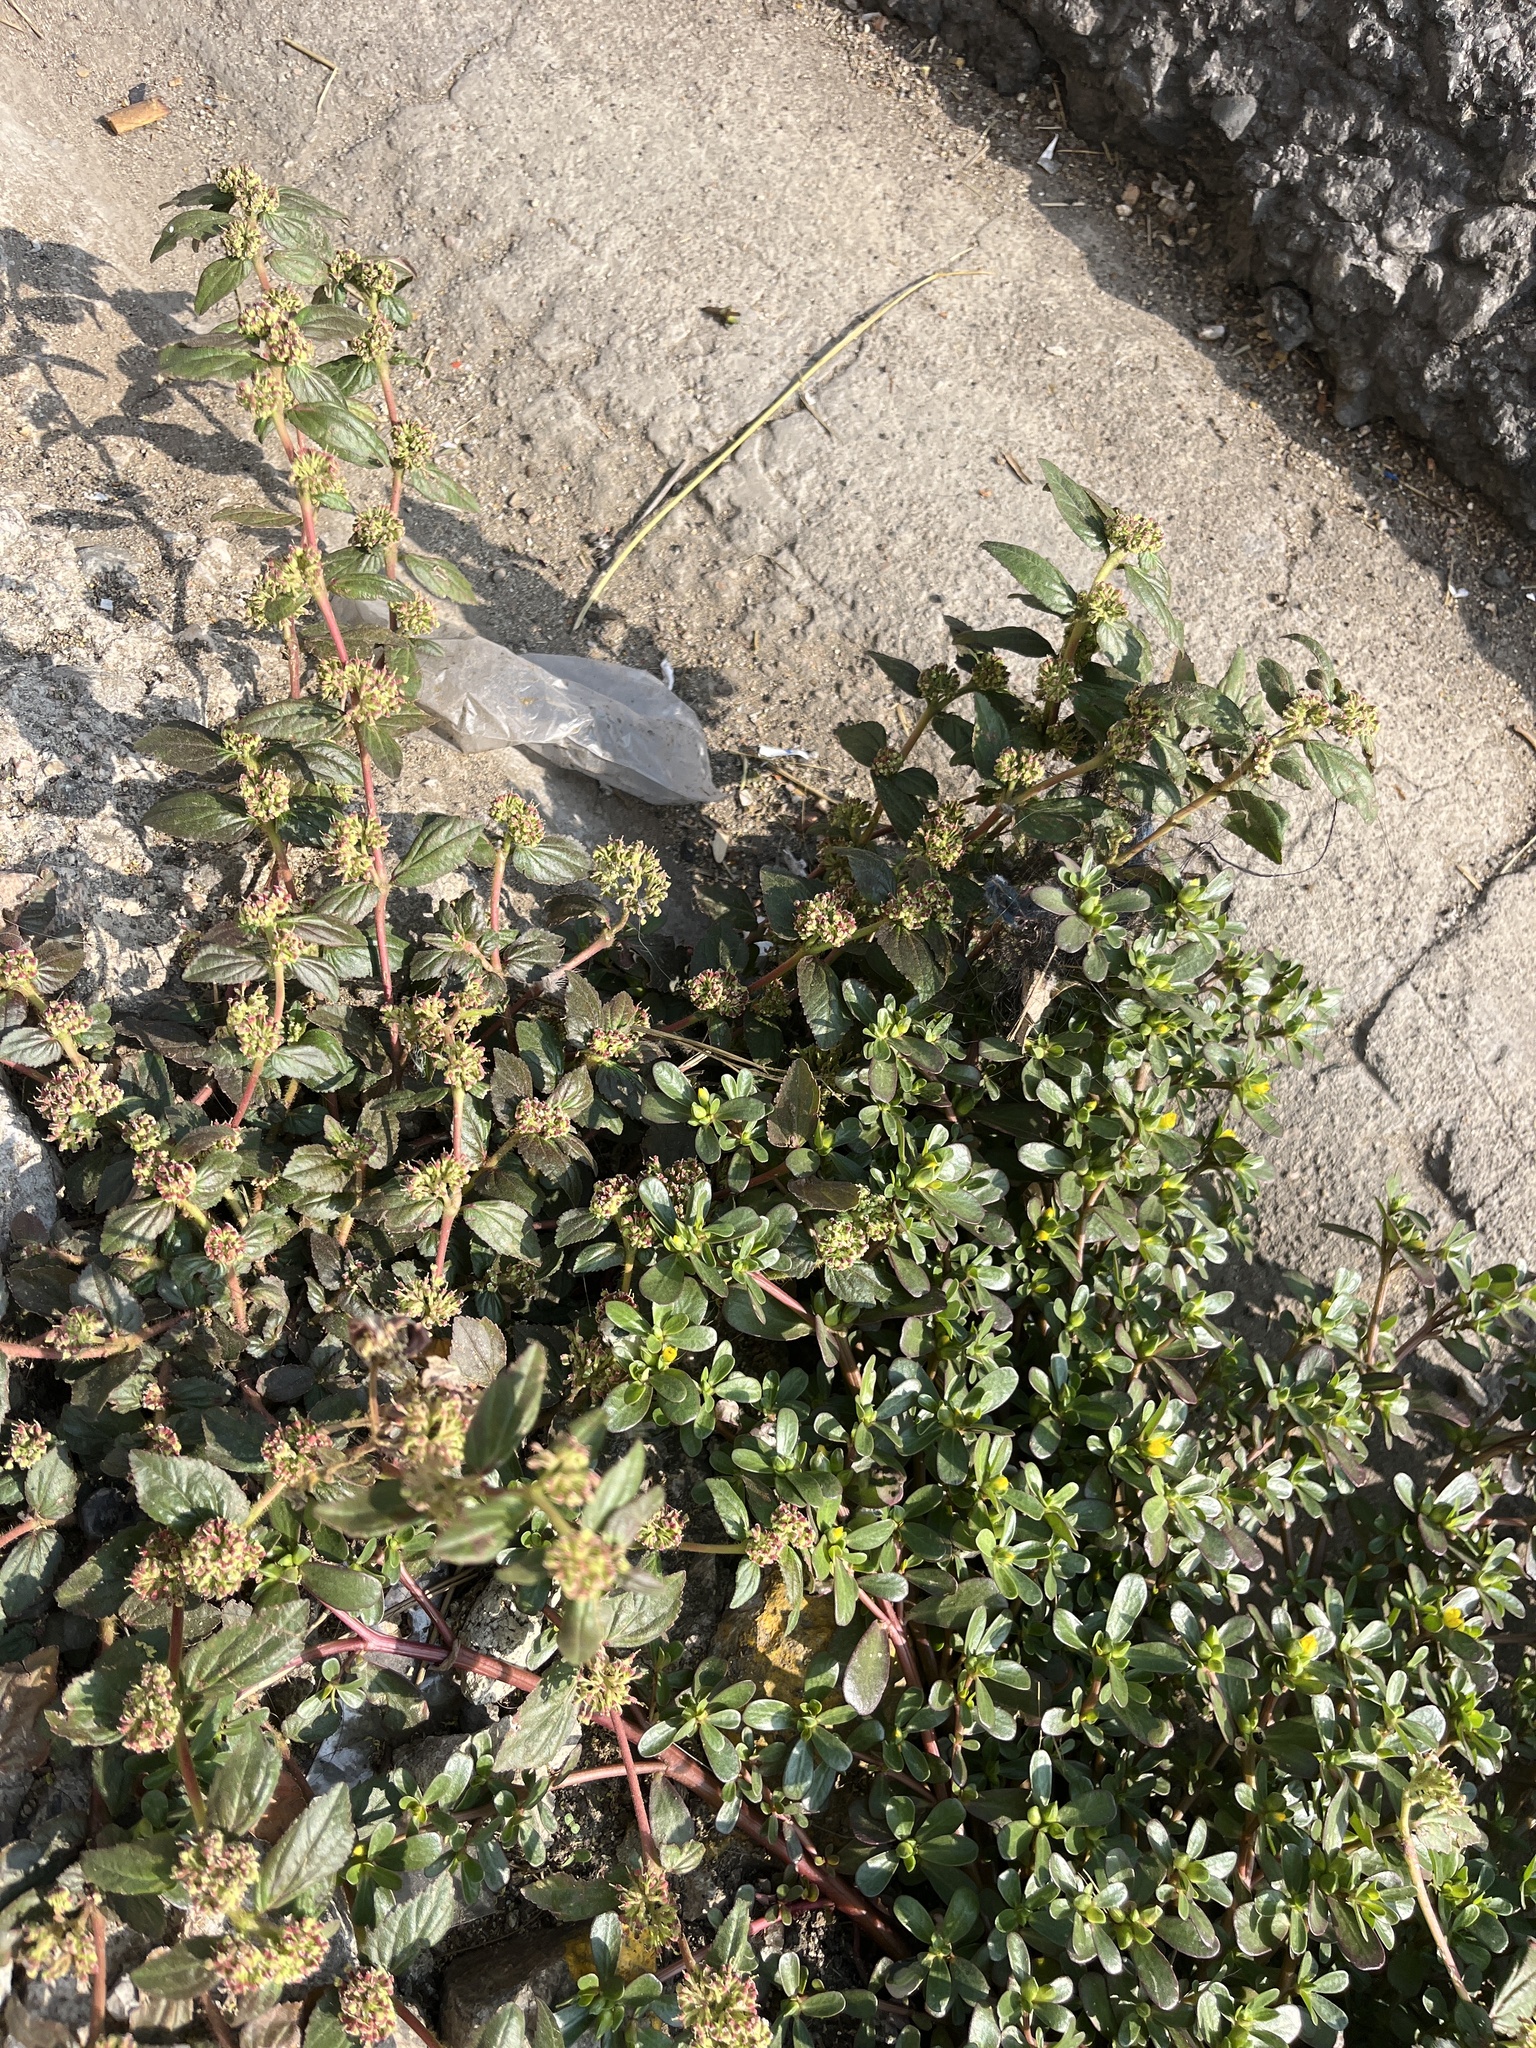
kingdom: Plantae
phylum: Tracheophyta
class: Magnoliopsida
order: Malpighiales
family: Euphorbiaceae
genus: Euphorbia
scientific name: Euphorbia hirta
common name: Pillpod sandmat
